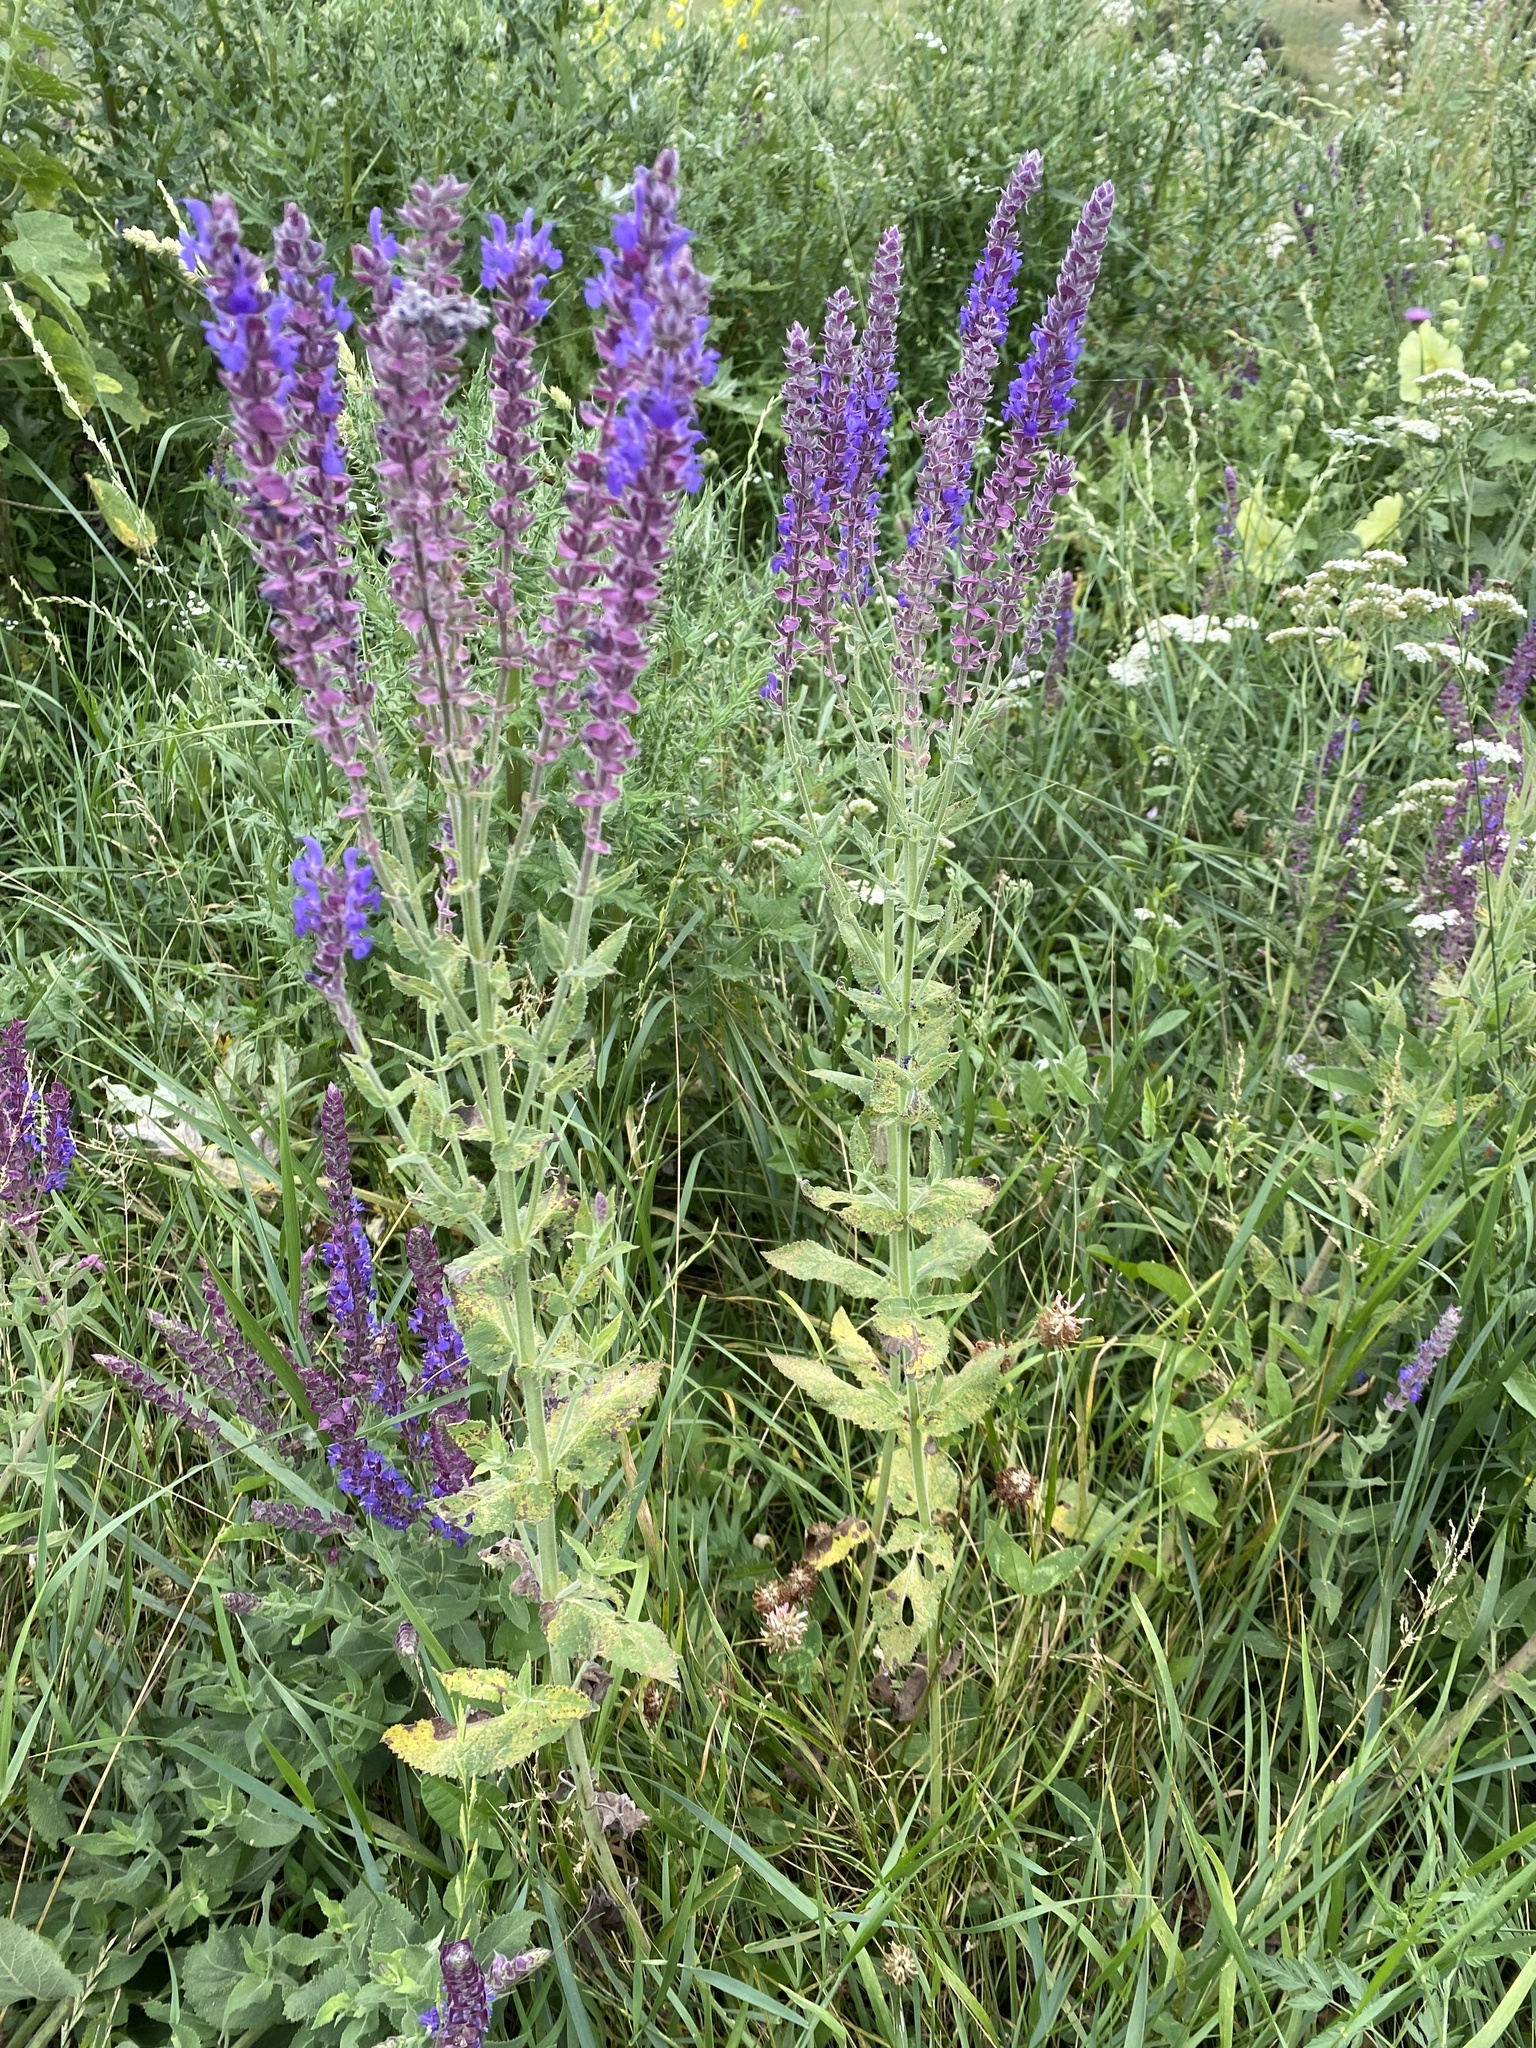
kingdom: Plantae
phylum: Tracheophyta
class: Magnoliopsida
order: Lamiales
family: Lamiaceae
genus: Salvia
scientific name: Salvia nemorosa
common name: Balkan clary
